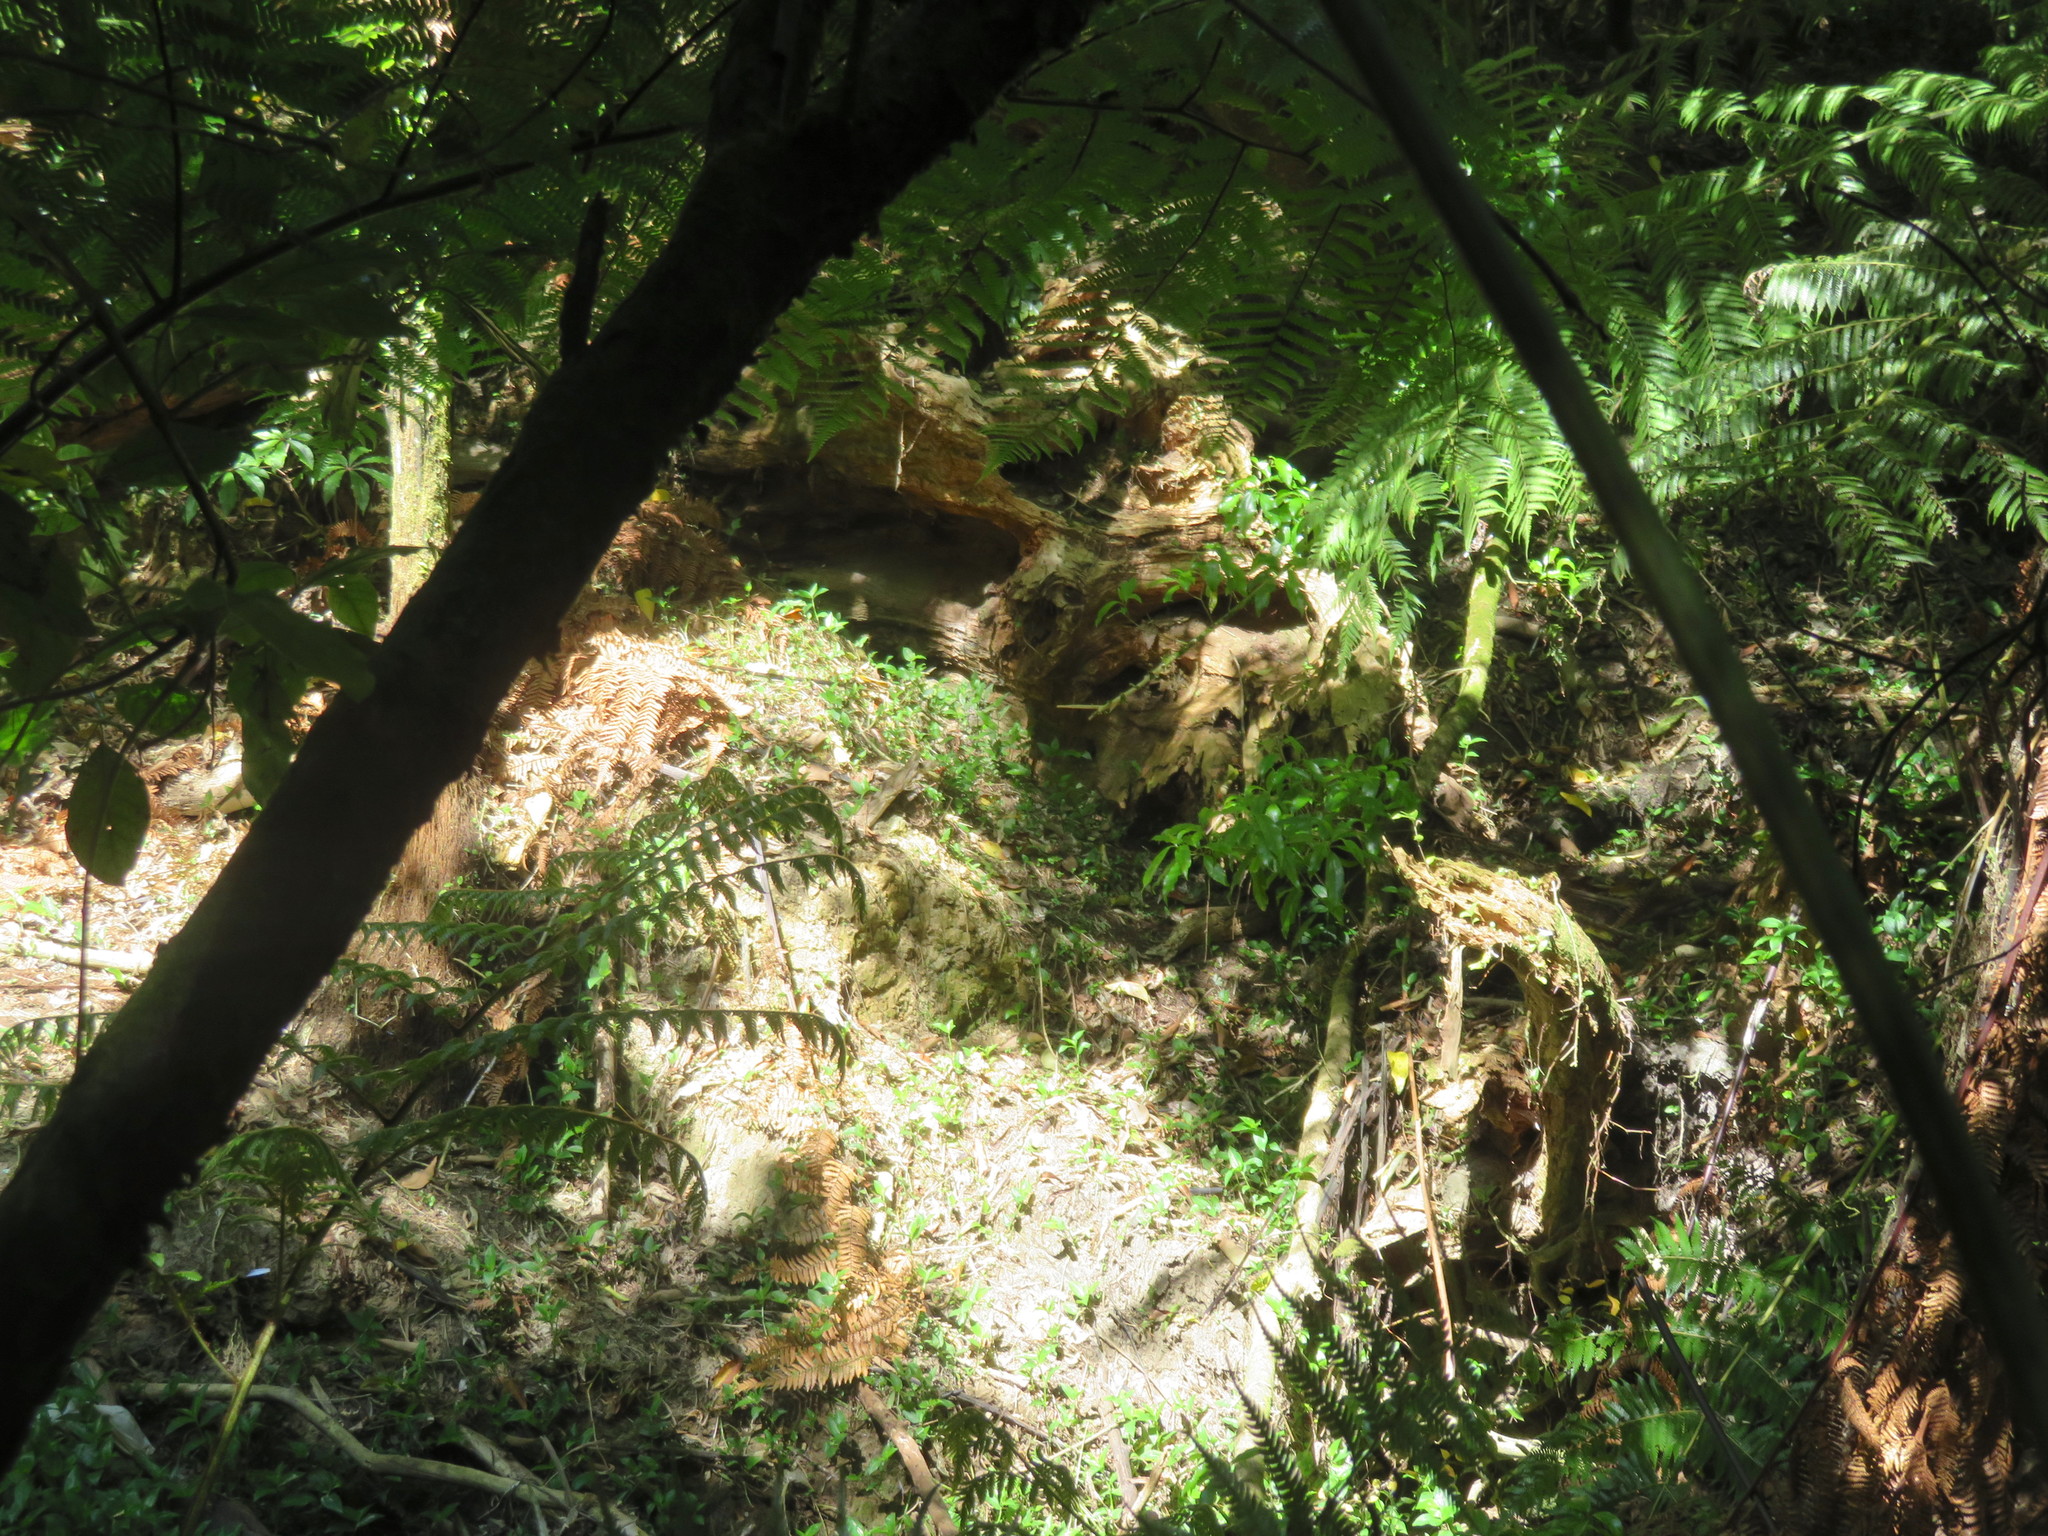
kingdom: Plantae
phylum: Tracheophyta
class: Liliopsida
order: Commelinales
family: Commelinaceae
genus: Tradescantia
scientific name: Tradescantia fluminensis
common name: Wandering-jew
